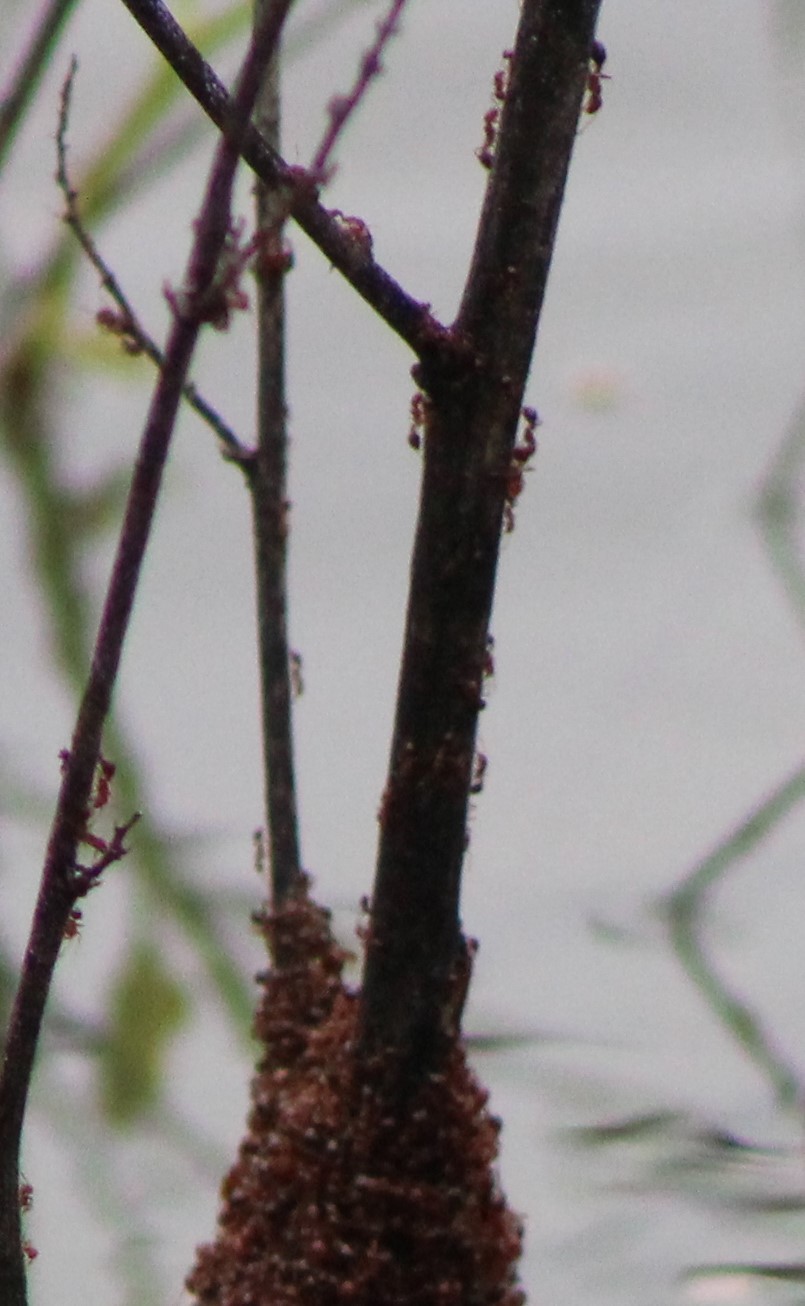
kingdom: Animalia
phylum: Arthropoda
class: Insecta
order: Hymenoptera
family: Formicidae
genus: Solenopsis
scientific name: Solenopsis invicta
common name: Red imported fire ant
